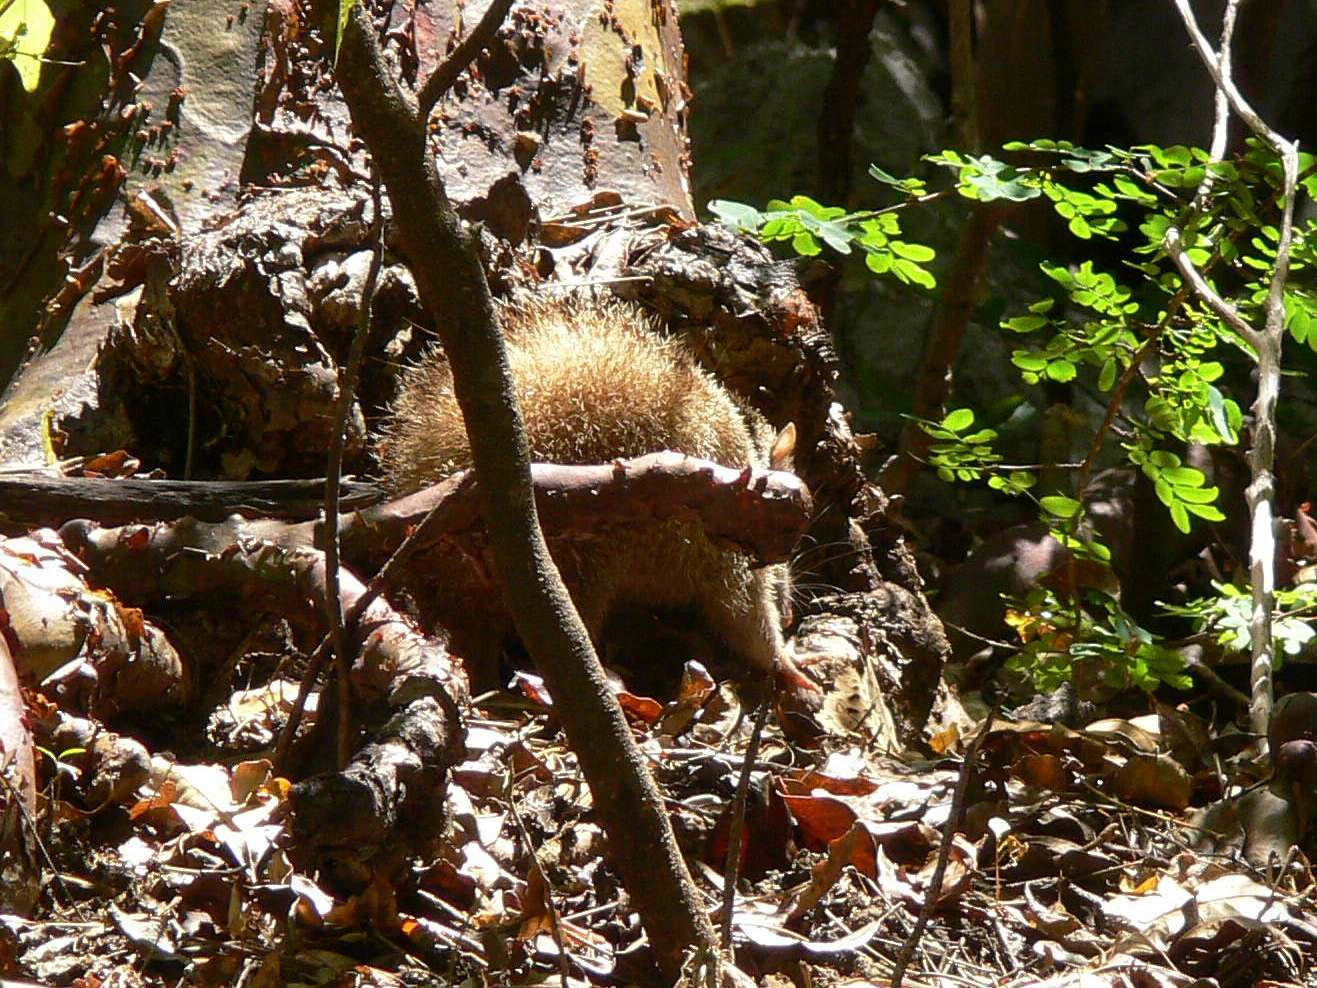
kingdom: Animalia
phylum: Chordata
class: Mammalia
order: Afrosoricida
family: Tenrecidae
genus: Tenrec
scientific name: Tenrec ecaudatus
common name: Common tenrec
